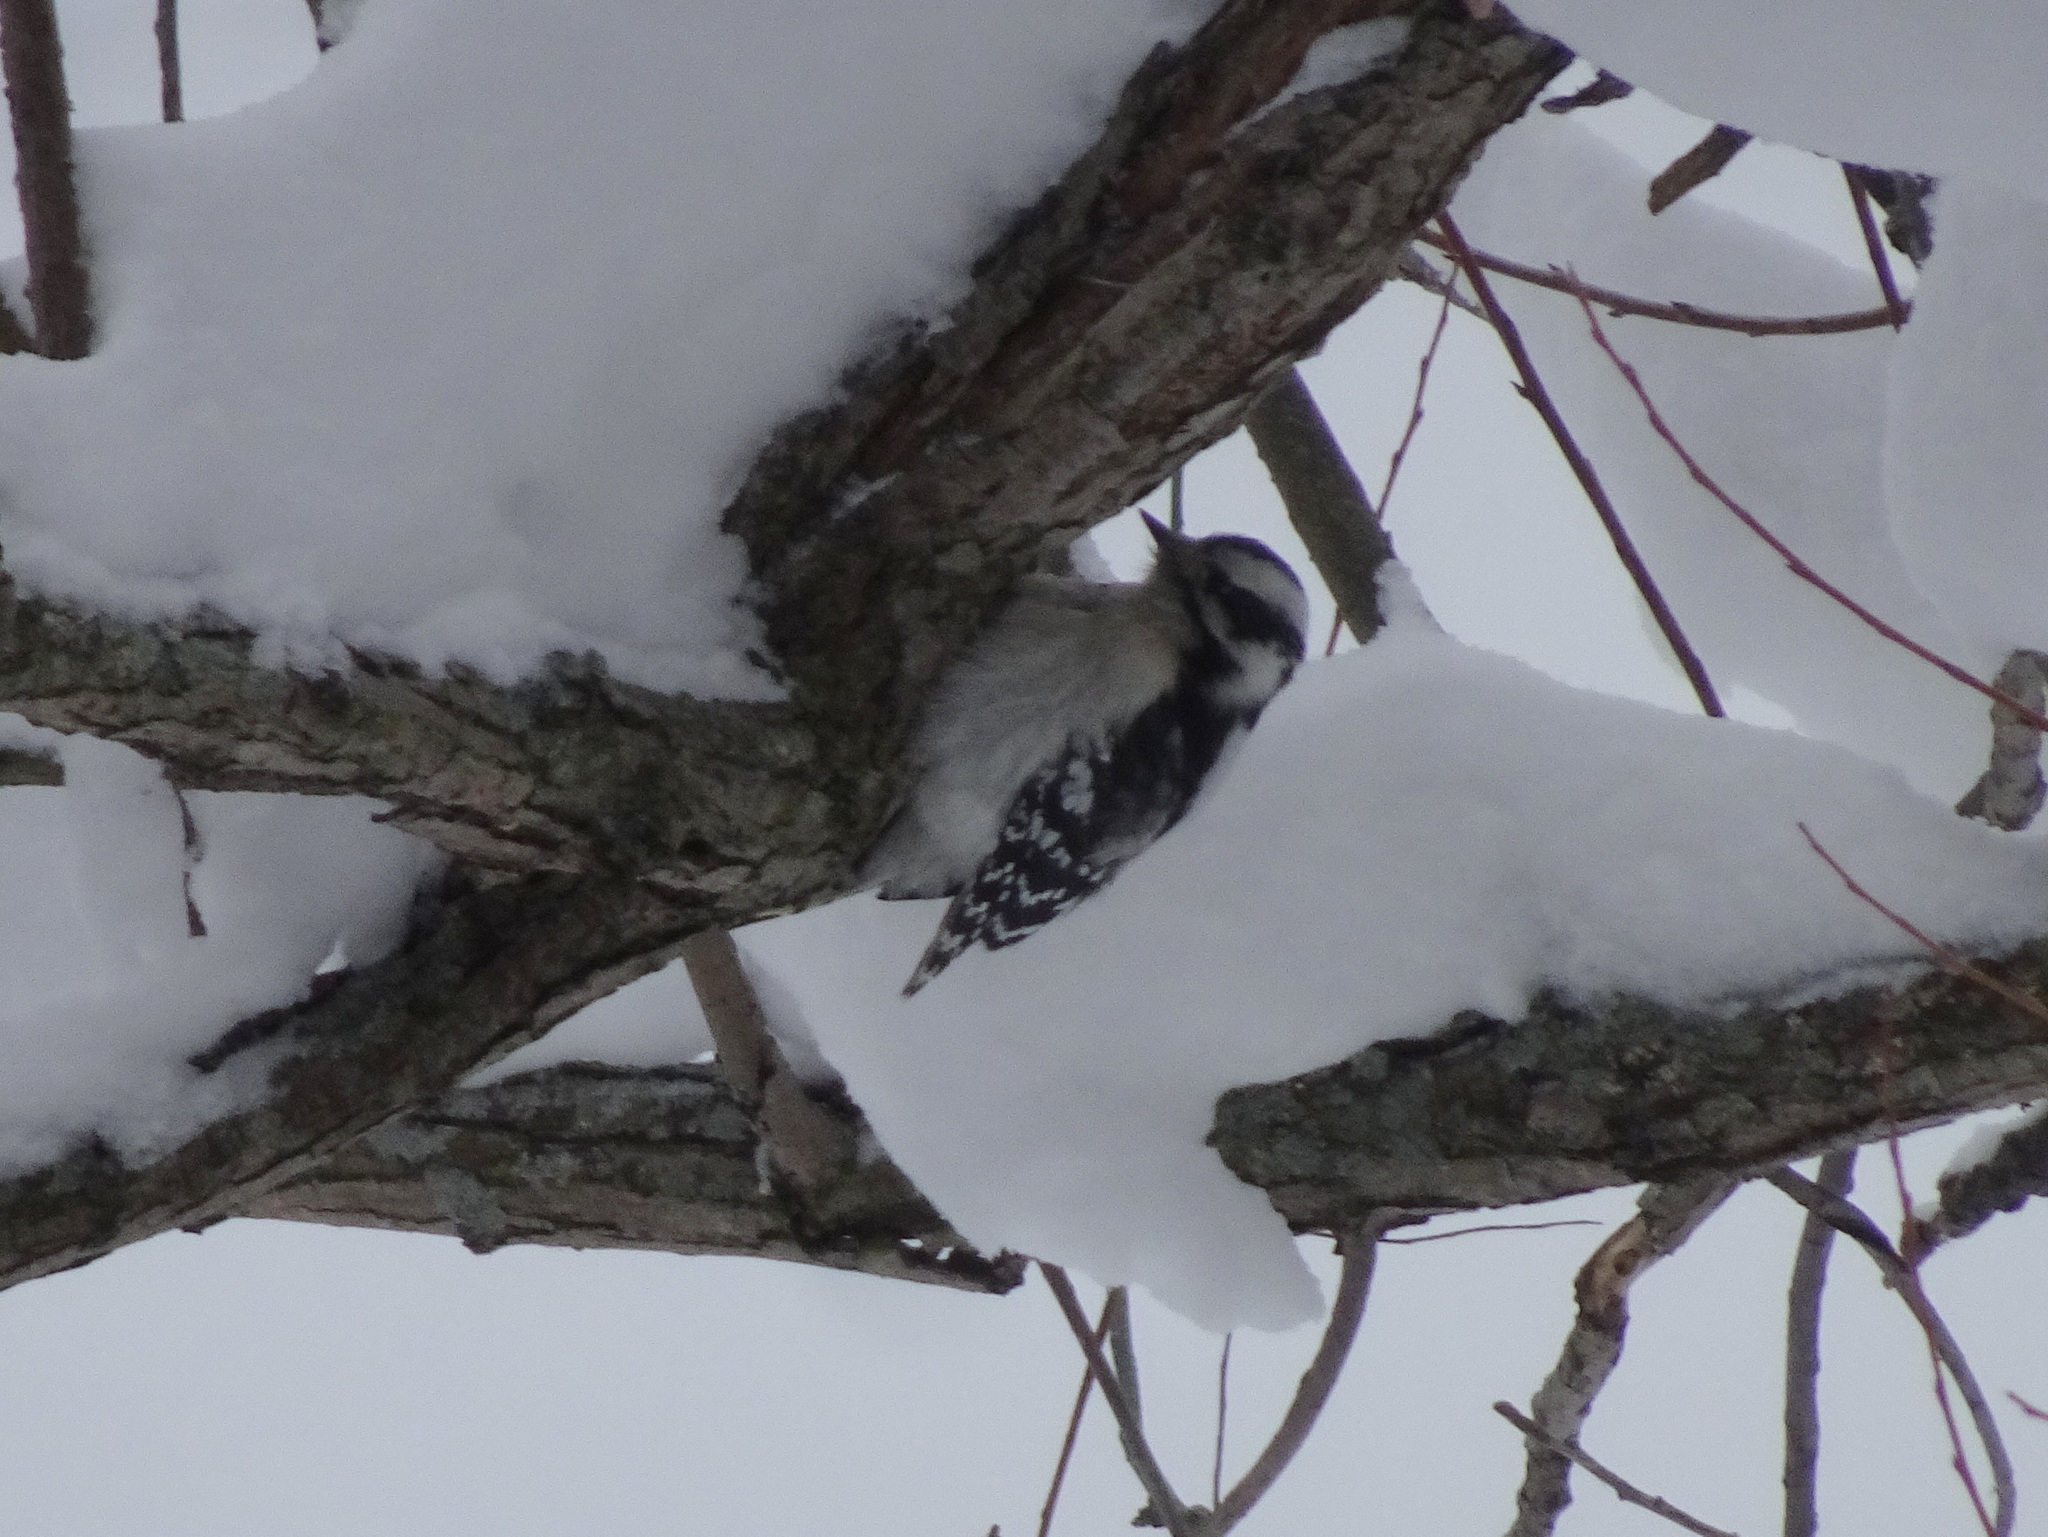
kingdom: Animalia
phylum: Chordata
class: Aves
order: Piciformes
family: Picidae
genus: Dryobates
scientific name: Dryobates pubescens
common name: Downy woodpecker
